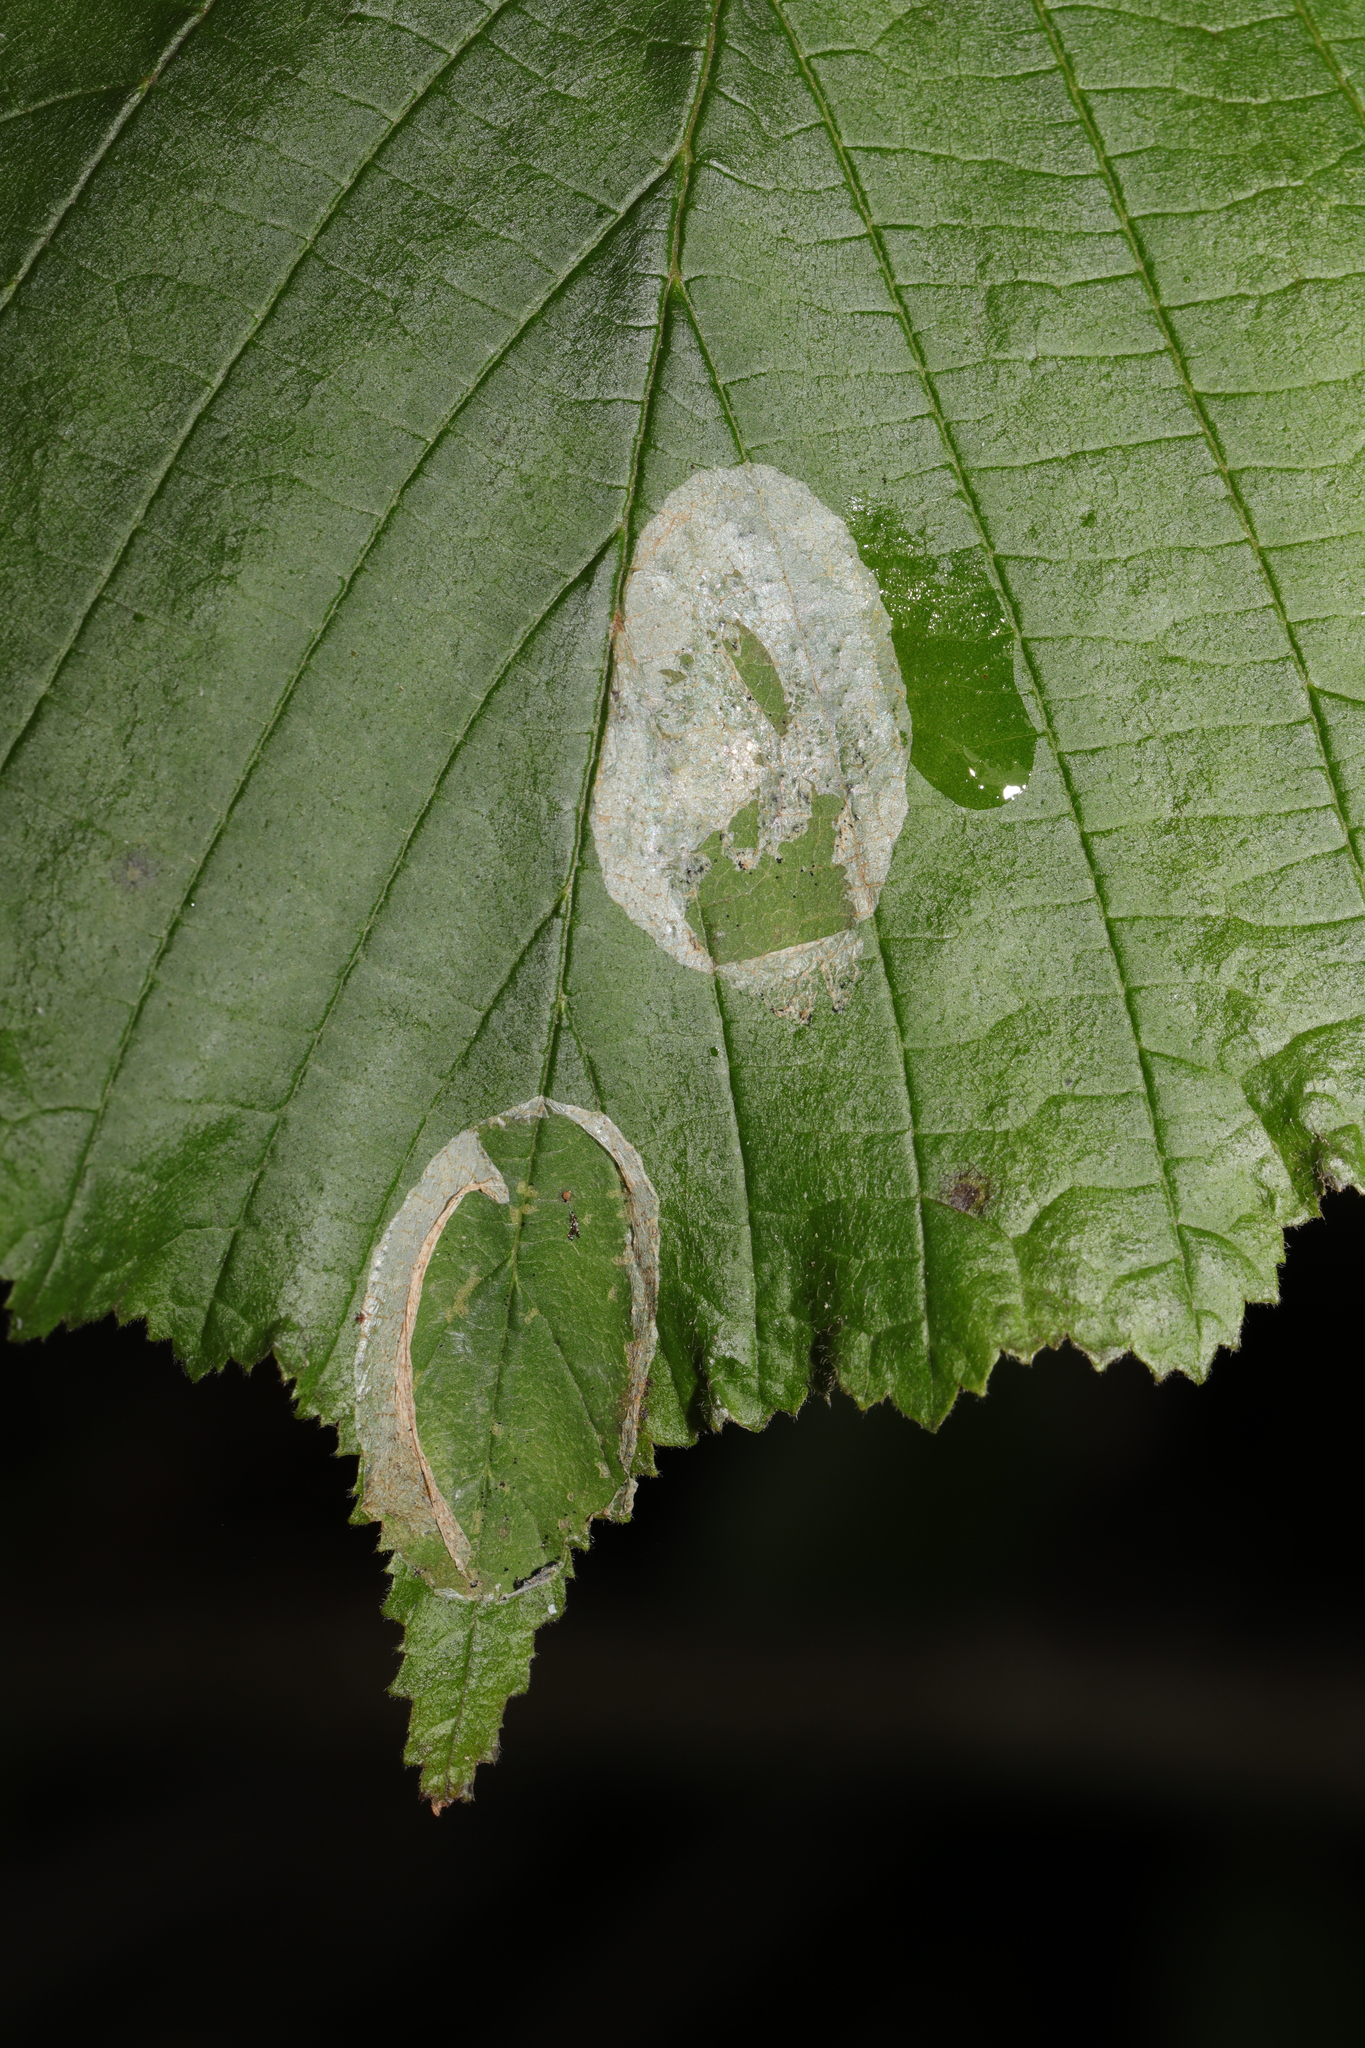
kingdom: Animalia
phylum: Arthropoda
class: Insecta
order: Lepidoptera
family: Gracillariidae
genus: Phyllonorycter
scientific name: Phyllonorycter coryli
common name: Nut-leaf blister moth
